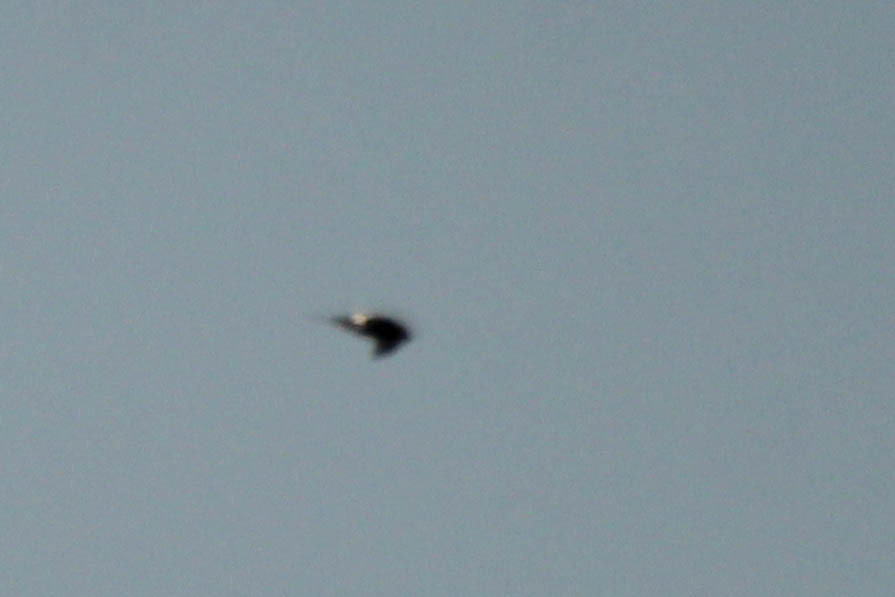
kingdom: Animalia
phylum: Chordata
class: Aves
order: Apodiformes
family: Apodidae
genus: Apus
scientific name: Apus pacificus
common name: Pacific swift
